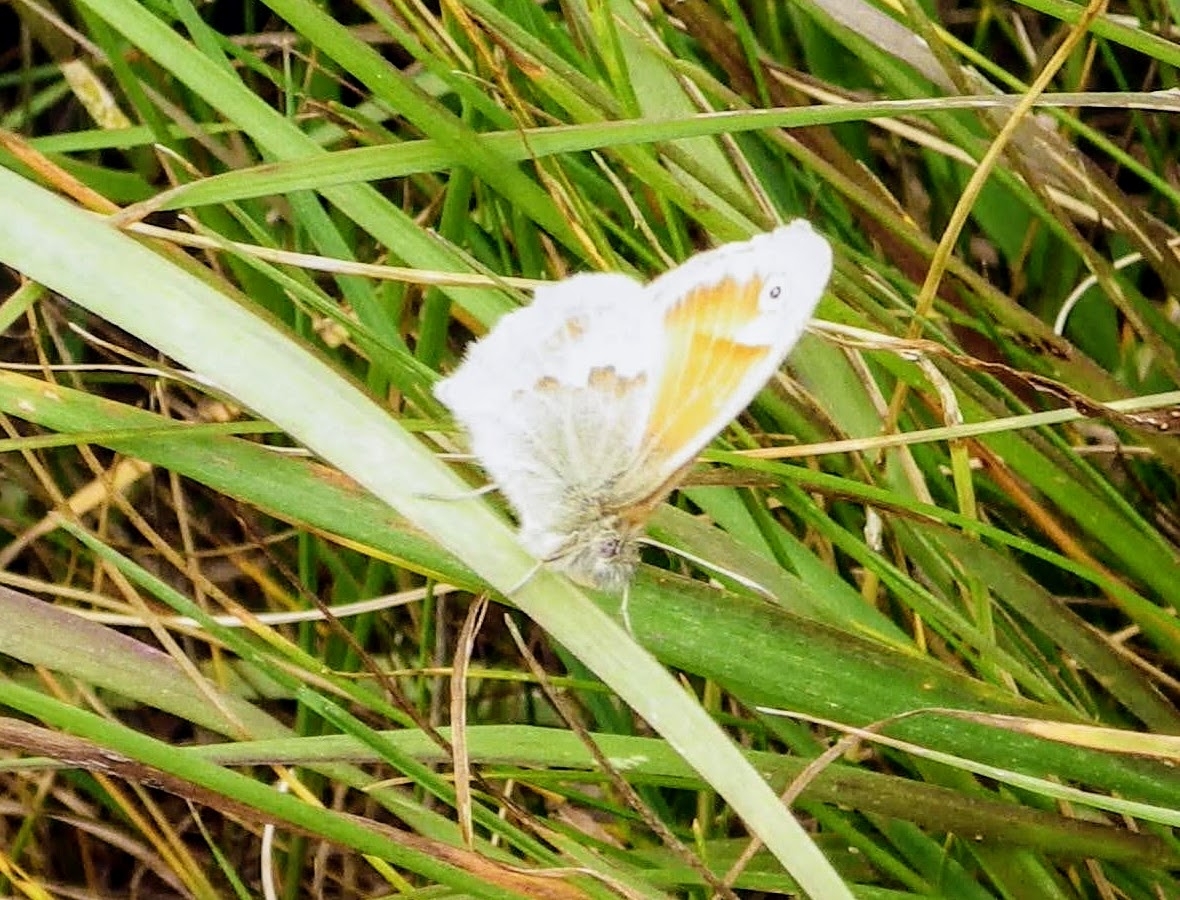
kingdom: Animalia
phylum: Arthropoda
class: Insecta
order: Lepidoptera
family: Nymphalidae
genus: Coenonympha
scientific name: Coenonympha pamphilus
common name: Small heath
